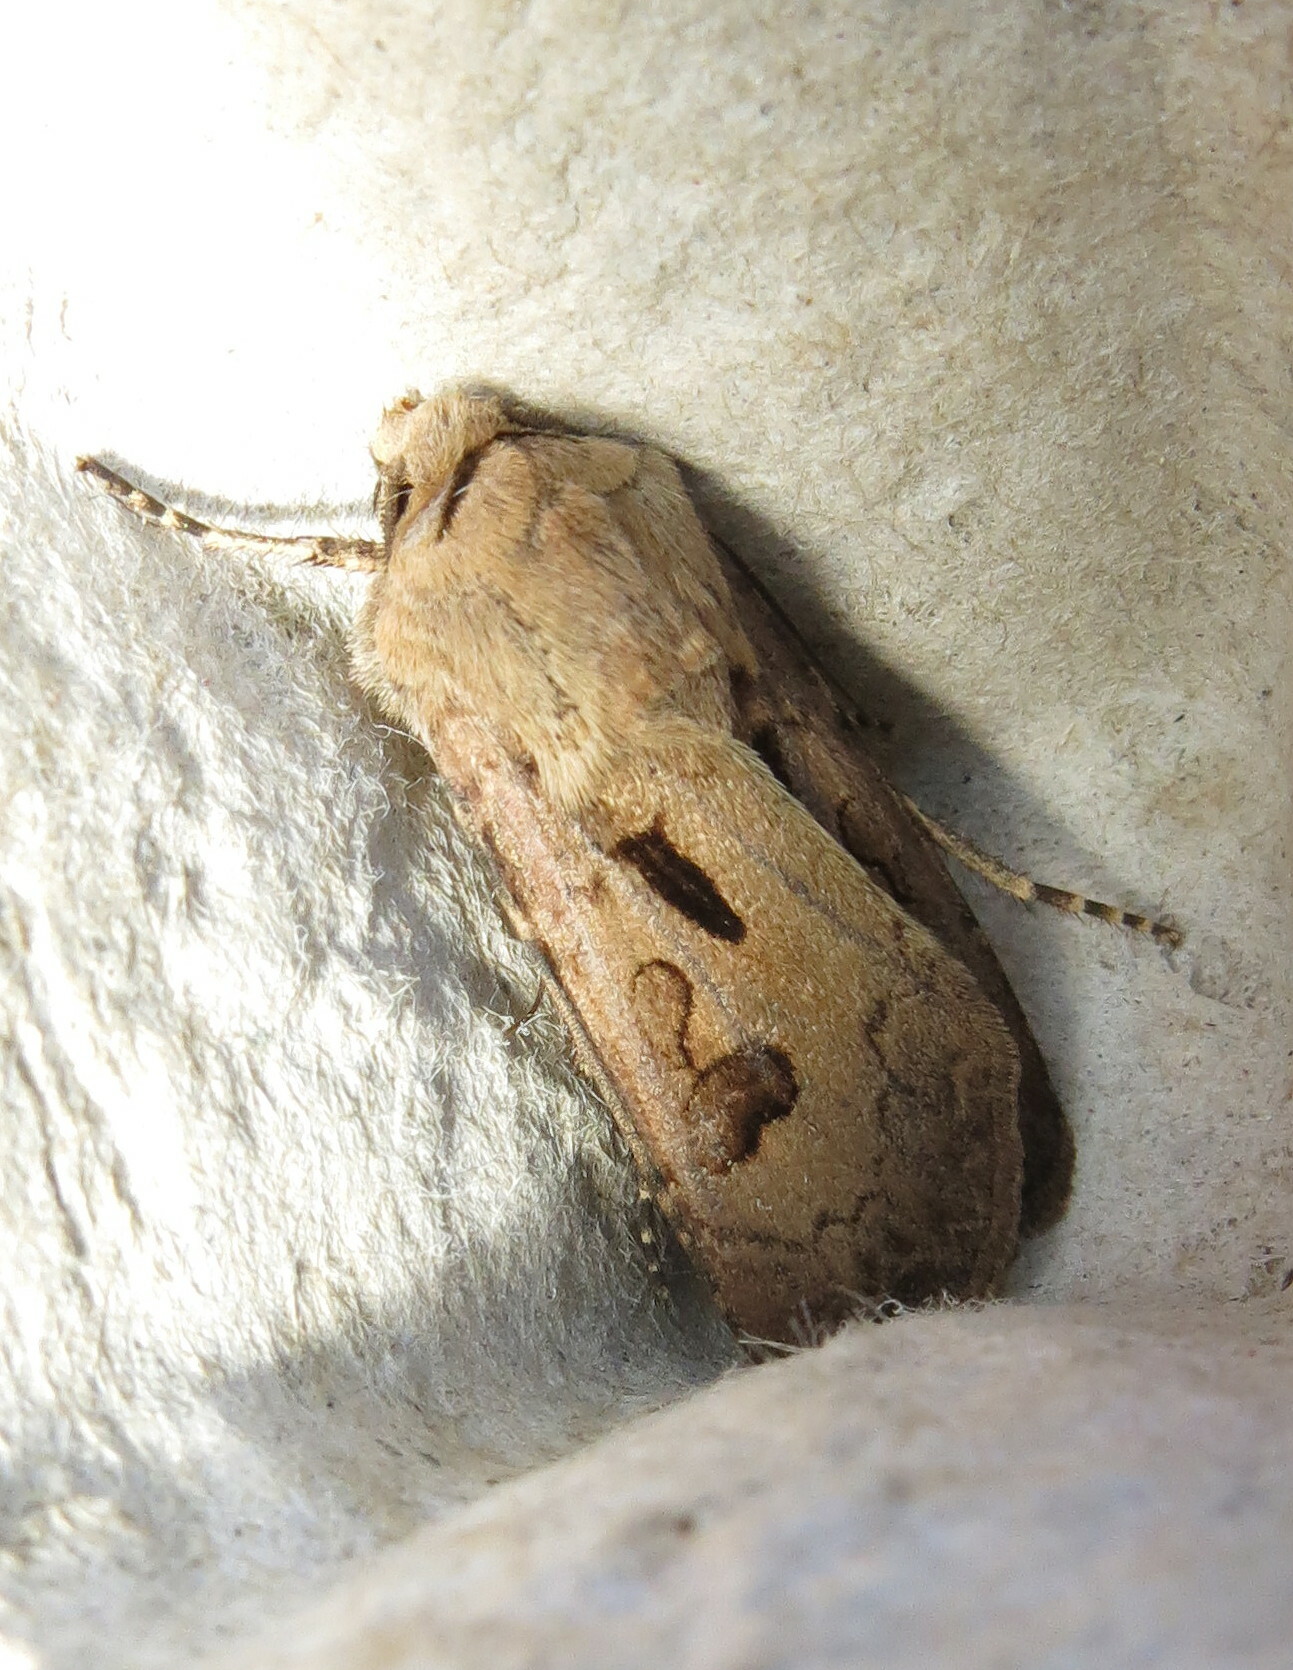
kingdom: Animalia
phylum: Arthropoda
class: Insecta
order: Lepidoptera
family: Noctuidae
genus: Agrotis
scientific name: Agrotis exclamationis
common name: Heart and dart
